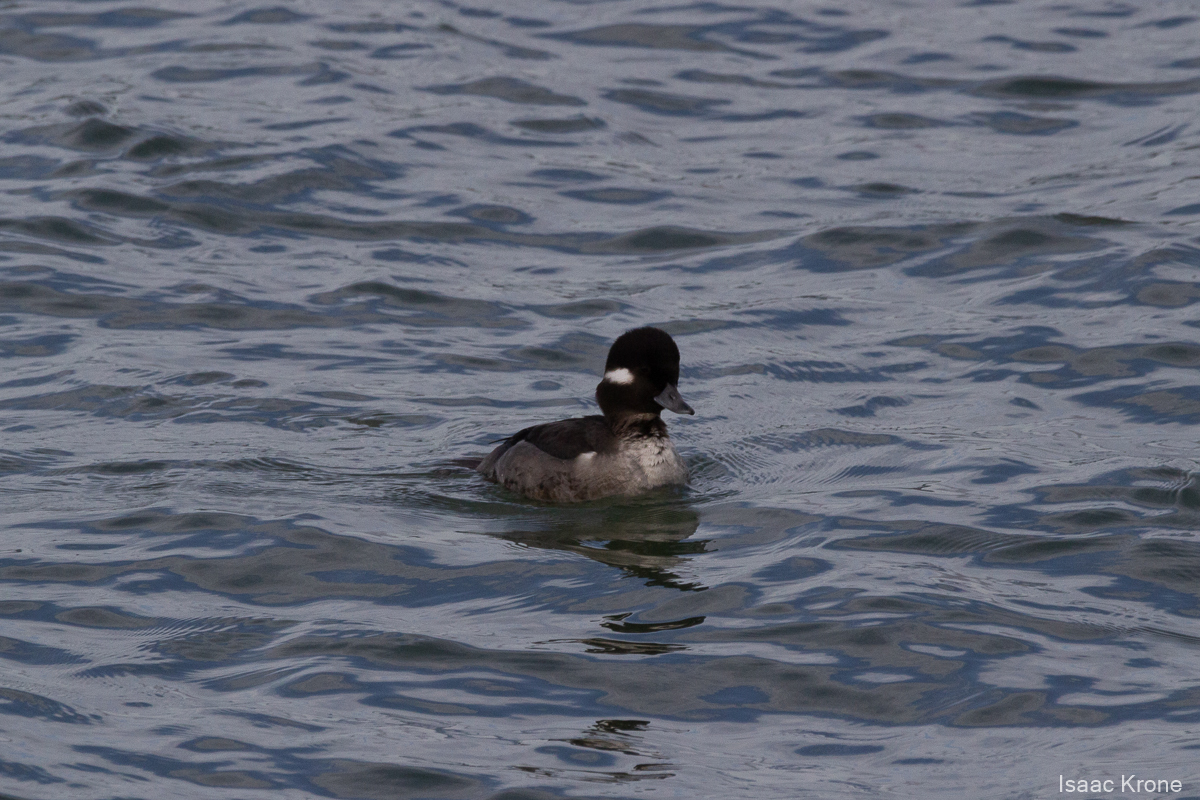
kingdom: Animalia
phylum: Chordata
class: Aves
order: Anseriformes
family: Anatidae
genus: Bucephala
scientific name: Bucephala albeola
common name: Bufflehead
